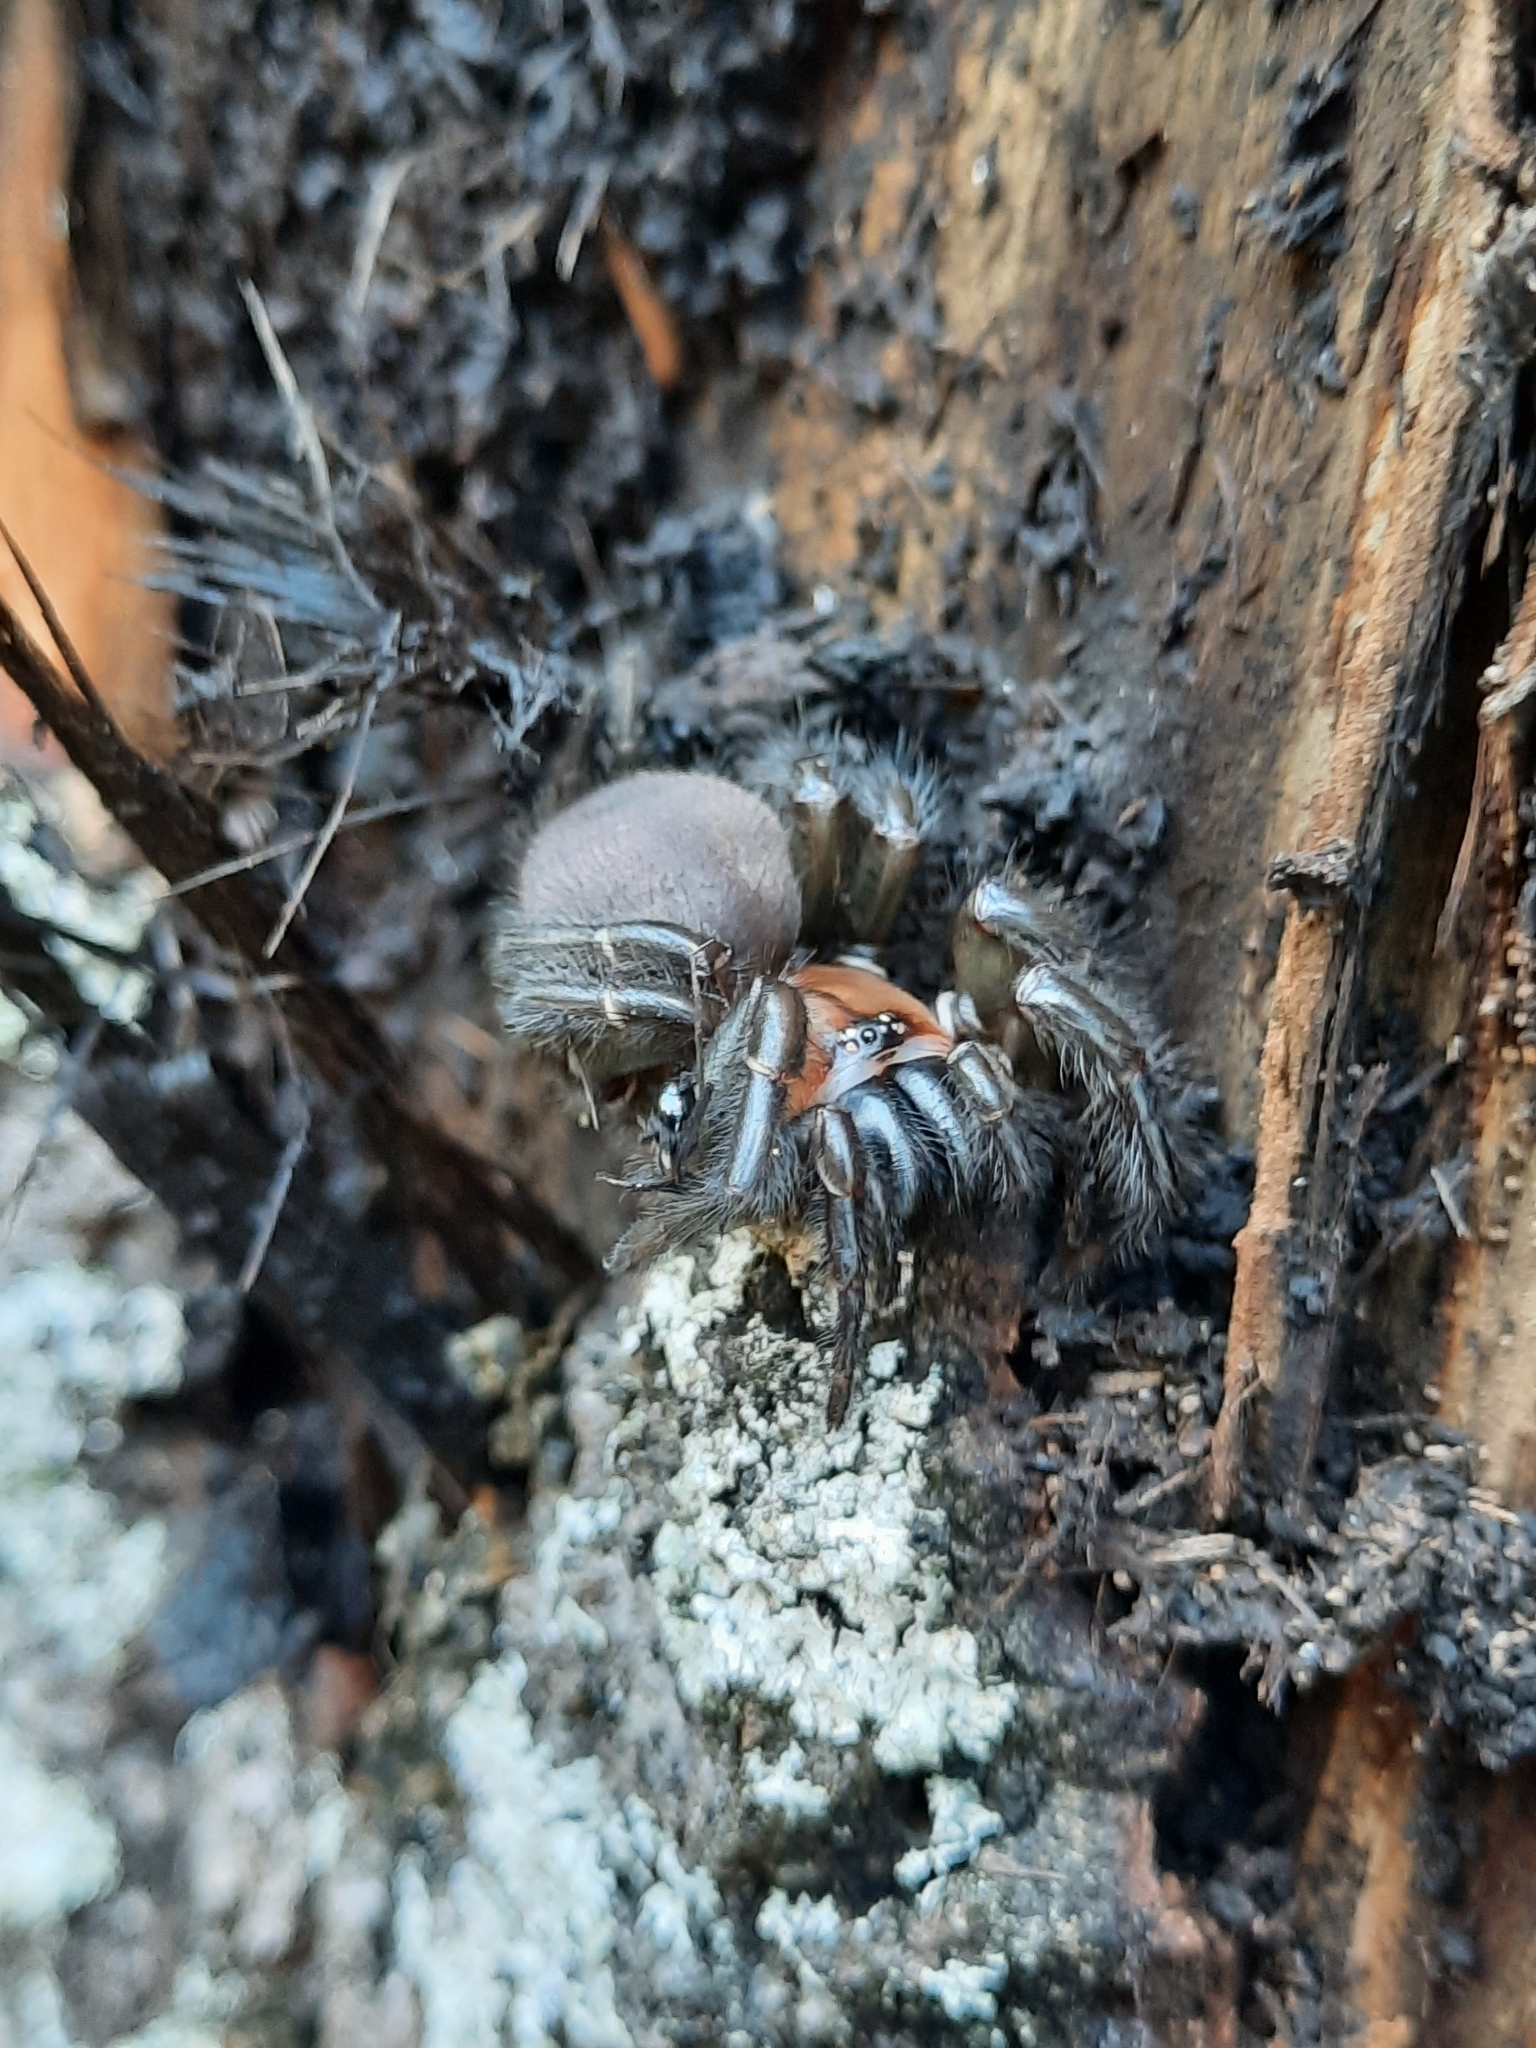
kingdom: Animalia
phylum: Arthropoda
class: Arachnida
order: Araneae
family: Porrhothelidae
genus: Porrhothele
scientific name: Porrhothele antipodiana
